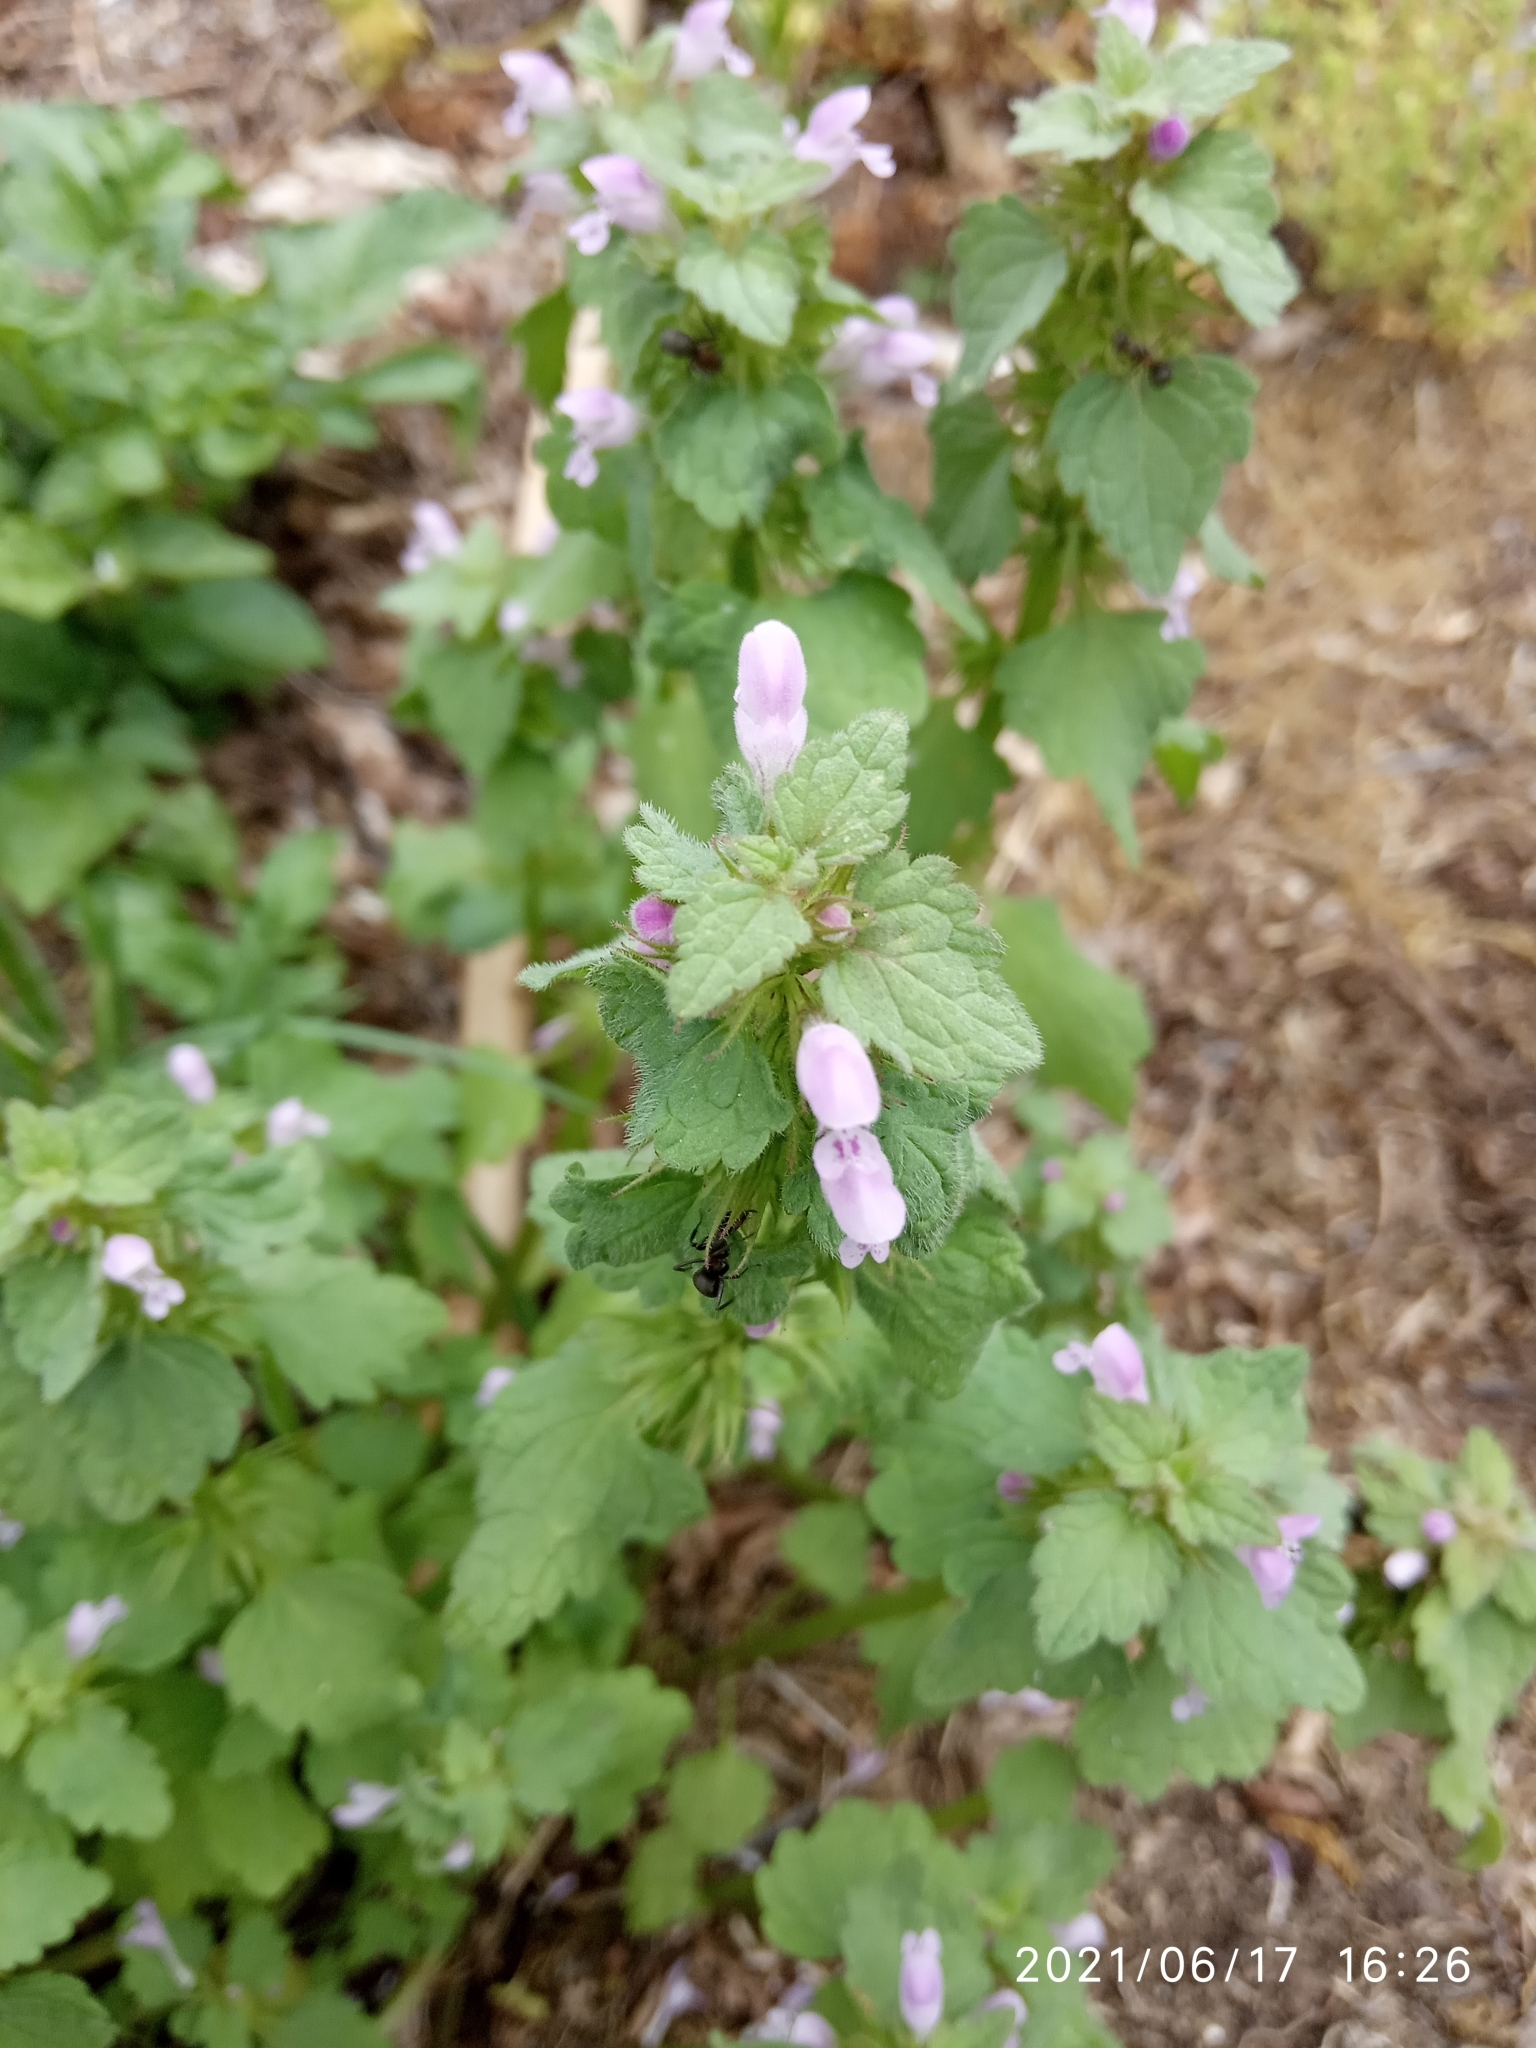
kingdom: Plantae
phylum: Tracheophyta
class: Magnoliopsida
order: Lamiales
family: Lamiaceae
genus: Lamium
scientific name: Lamium purpureum
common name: Red dead-nettle
